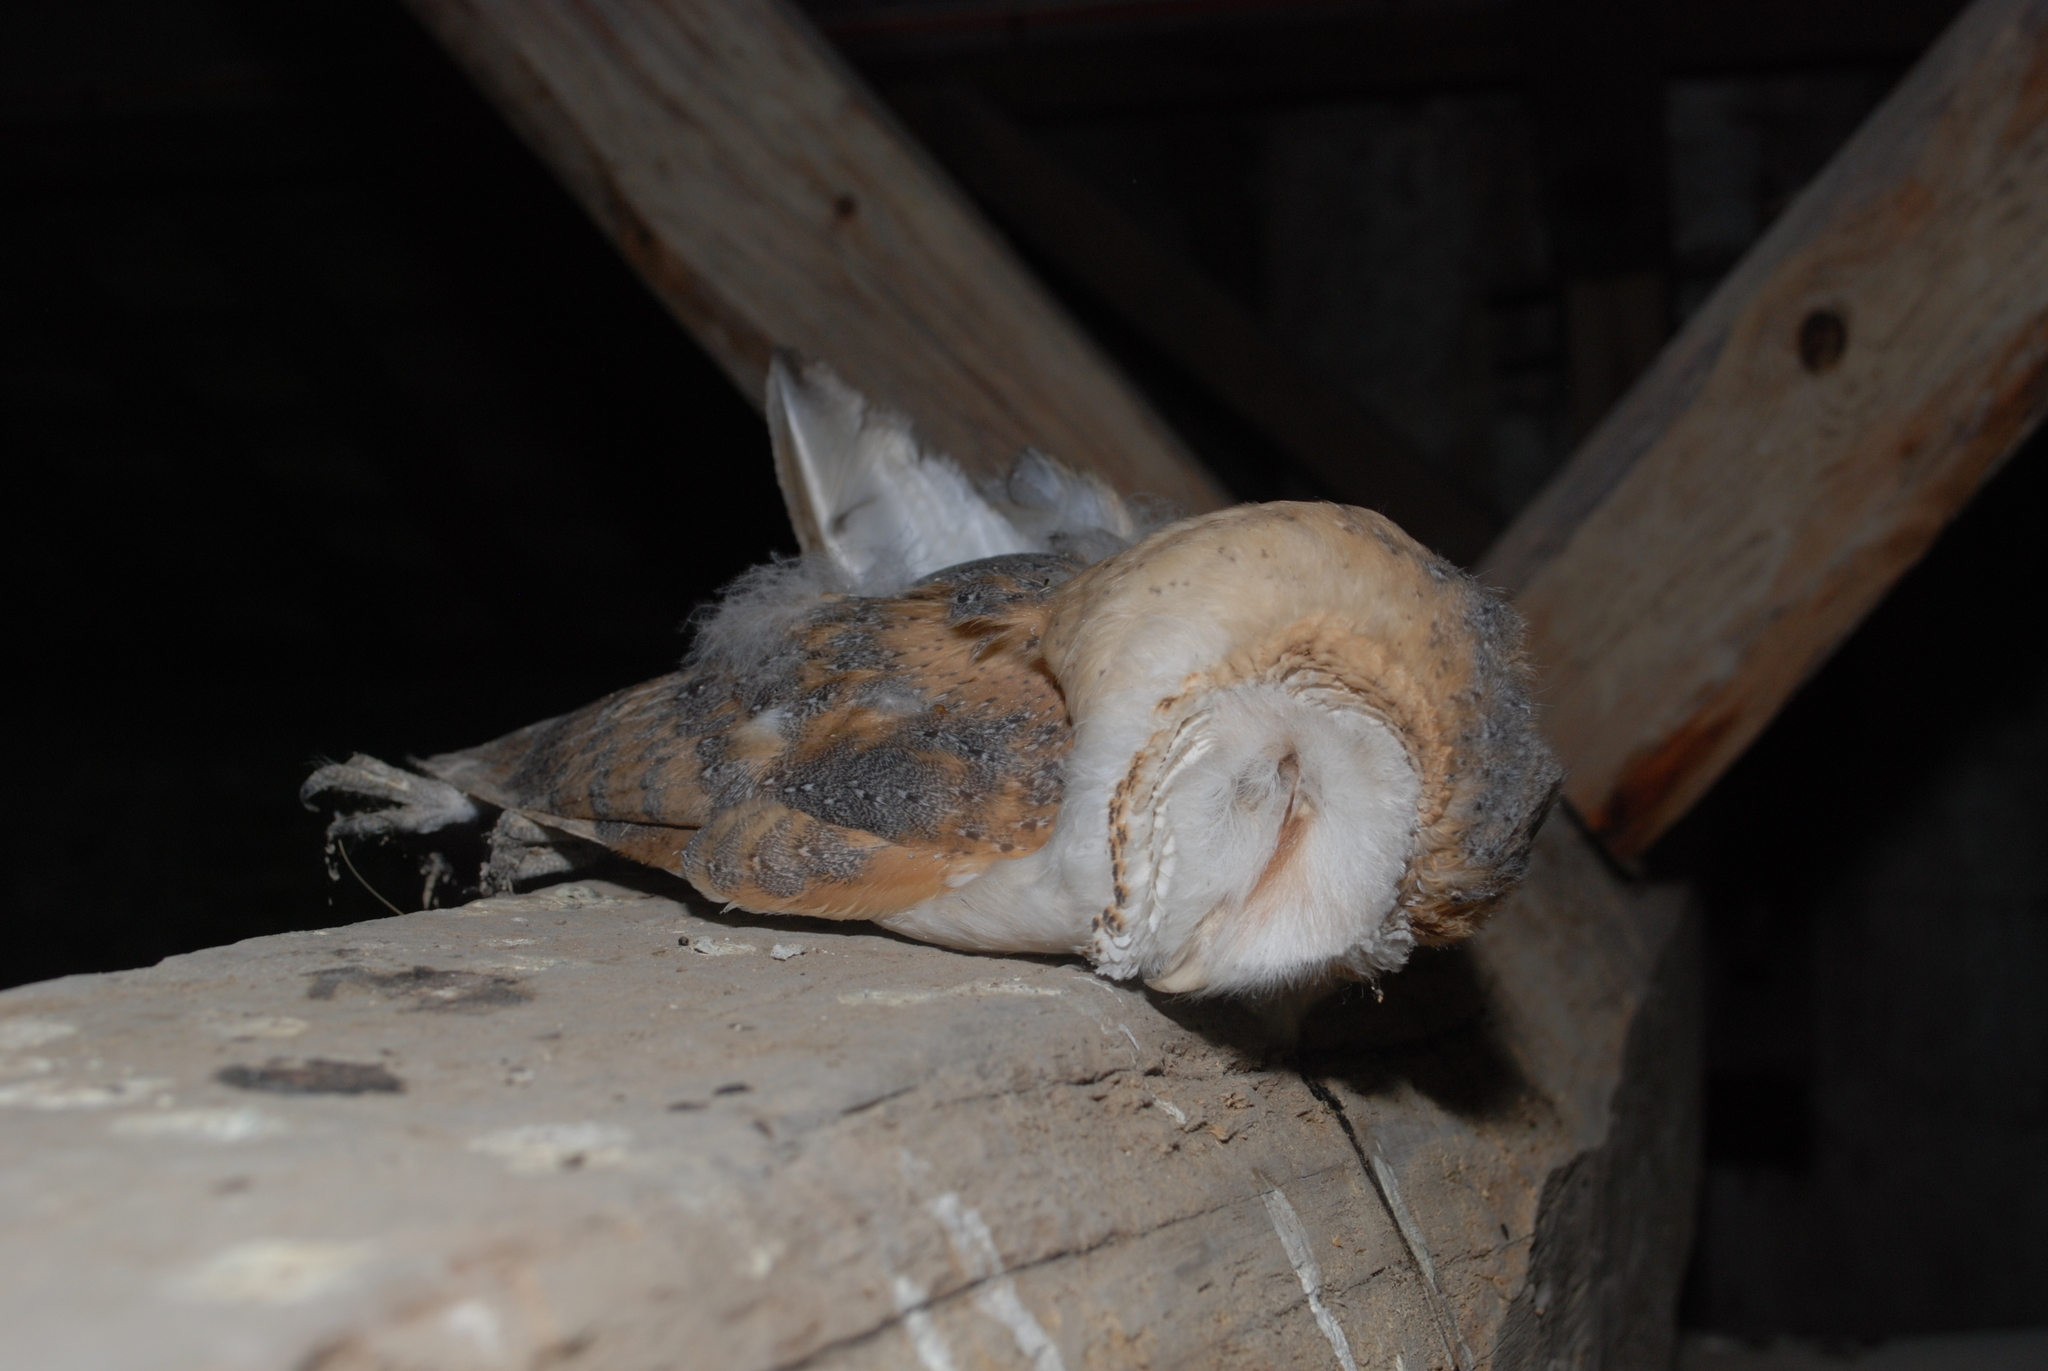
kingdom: Animalia
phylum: Chordata
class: Aves
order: Strigiformes
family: Tytonidae
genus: Tyto
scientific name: Tyto alba
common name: Barn owl
